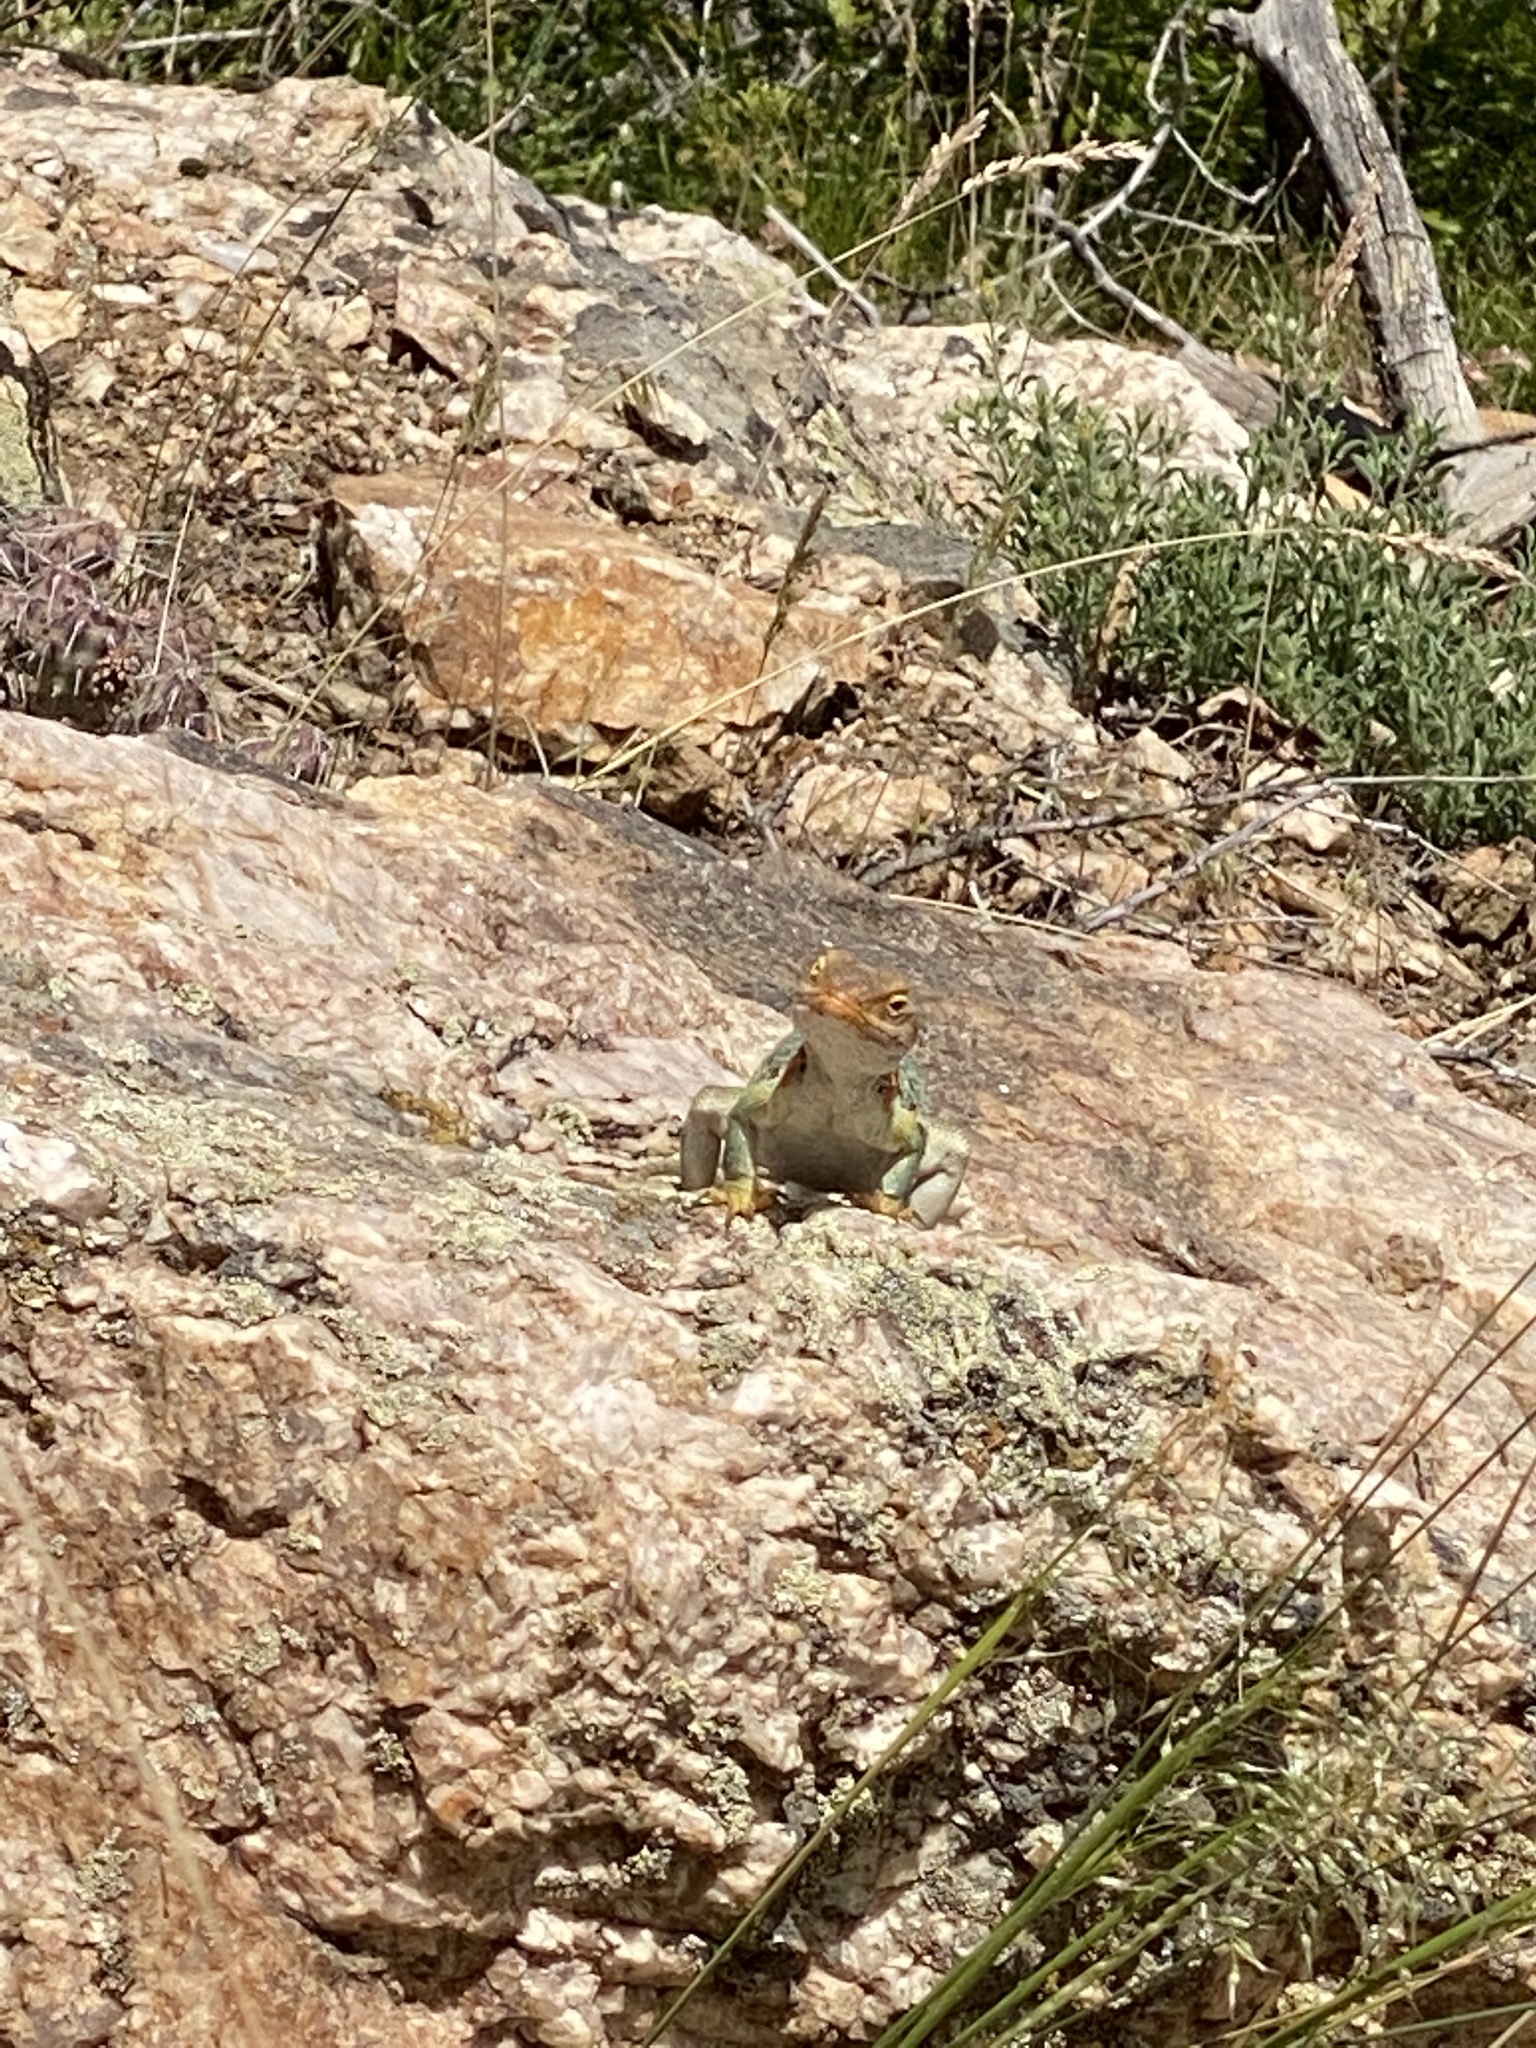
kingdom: Animalia
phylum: Chordata
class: Squamata
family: Crotaphytidae
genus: Crotaphytus
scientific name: Crotaphytus collaris
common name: Collared lizard
